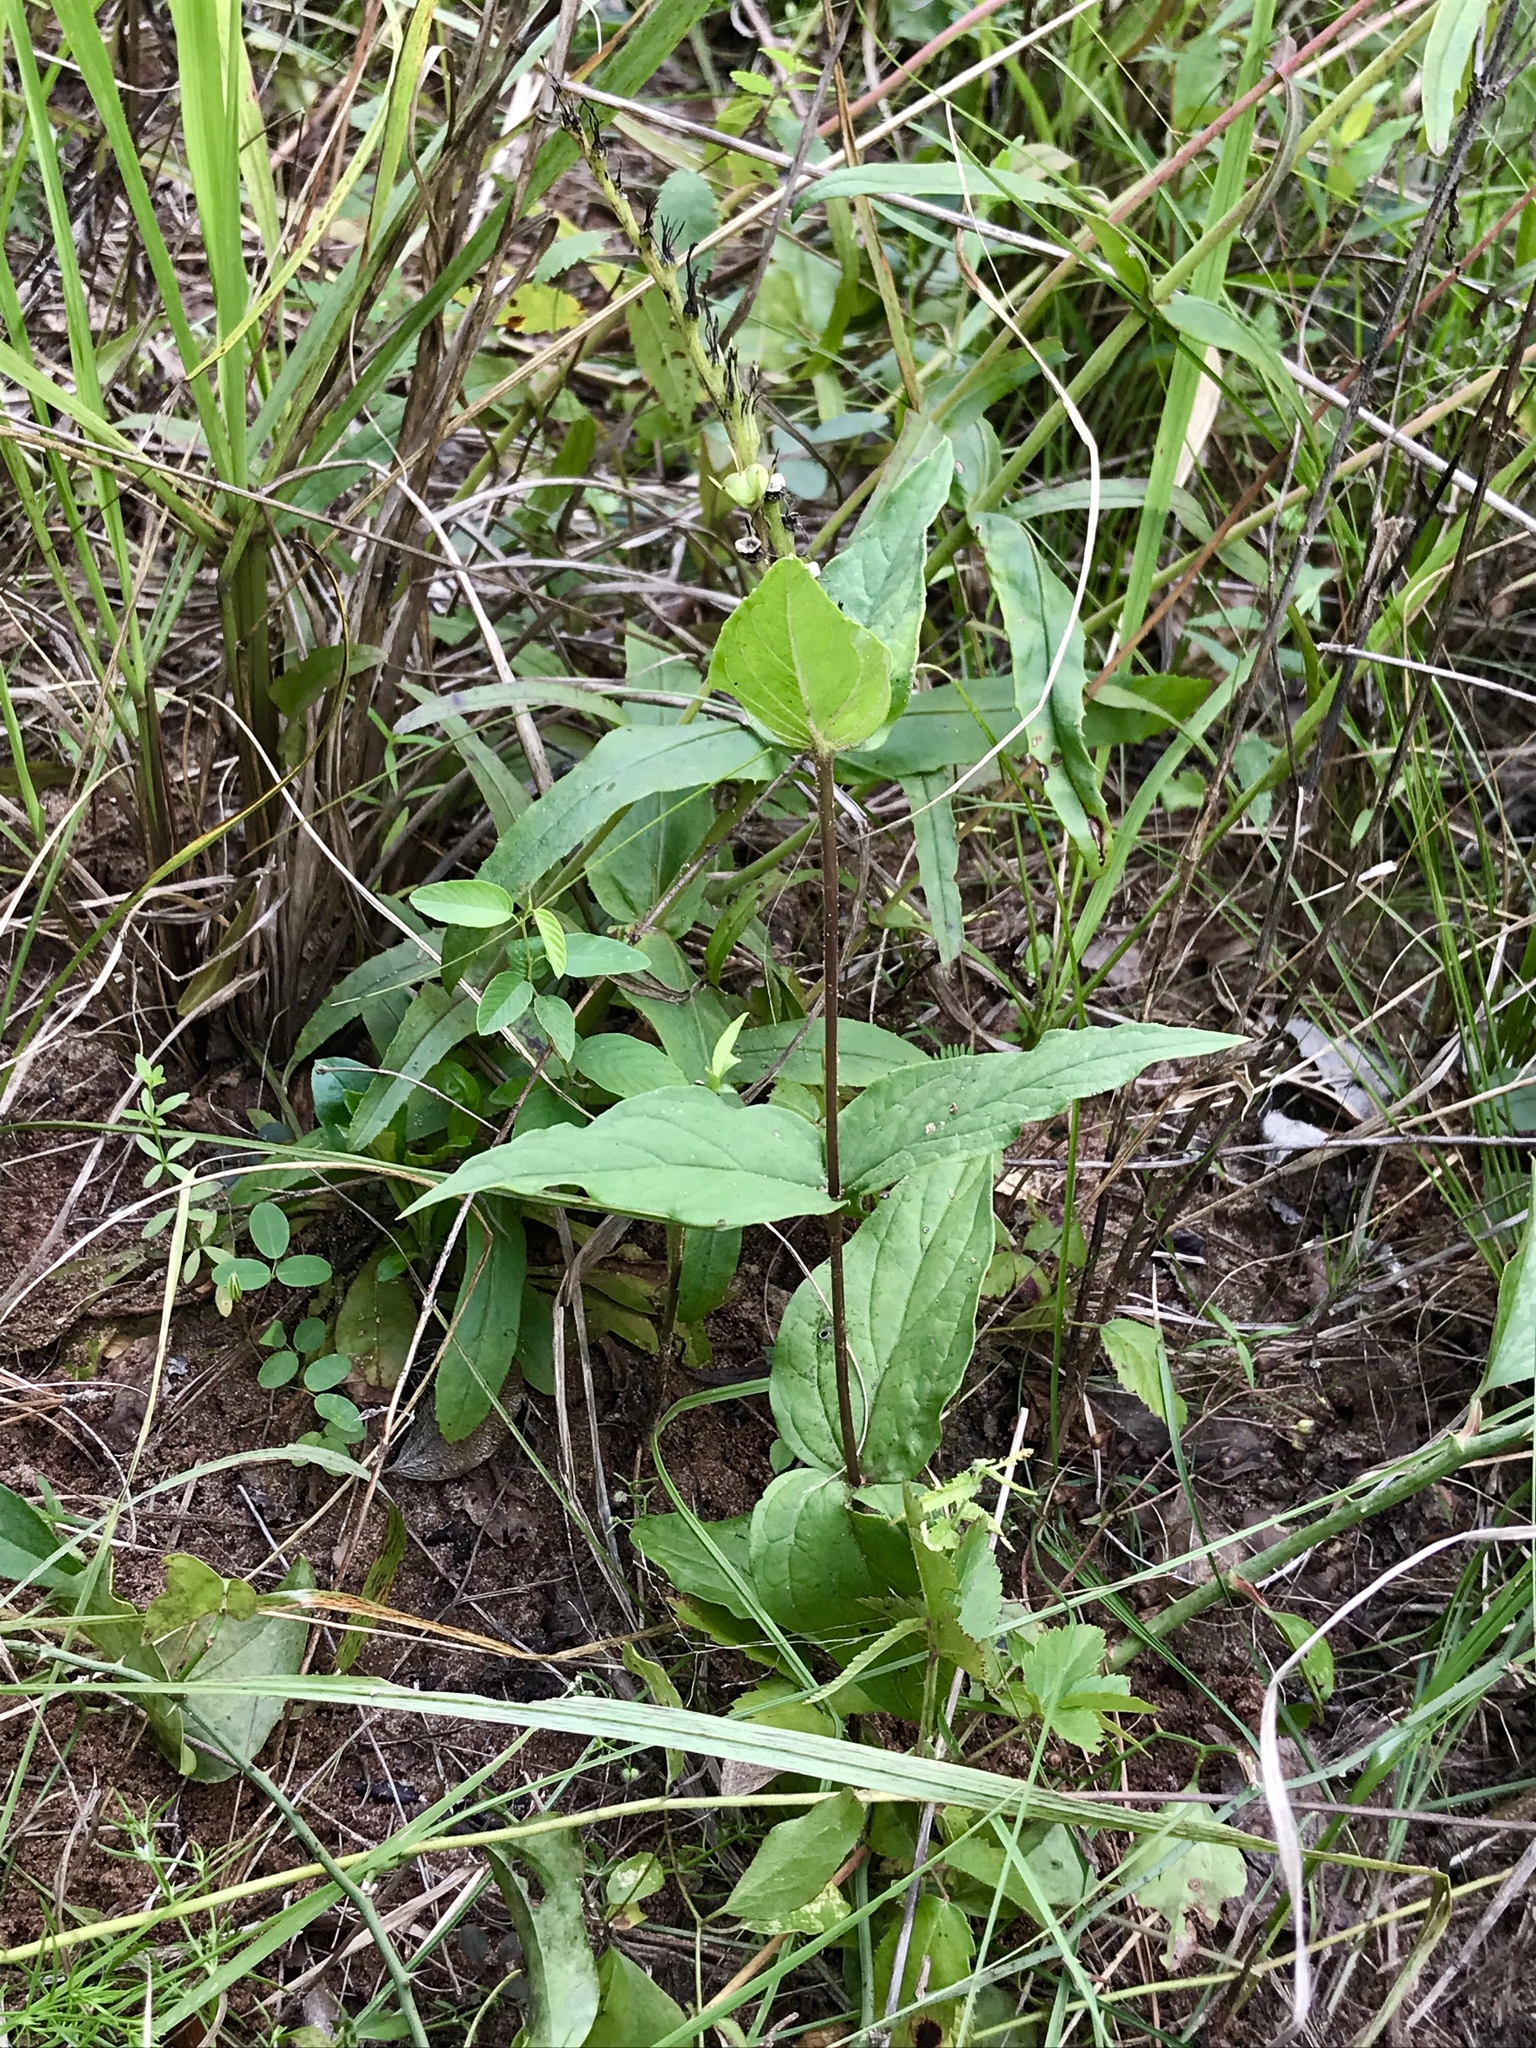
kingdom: Plantae
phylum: Tracheophyta
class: Magnoliopsida
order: Gentianales
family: Loganiaceae
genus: Spigelia
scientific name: Spigelia marilandica
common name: Indian-pink
